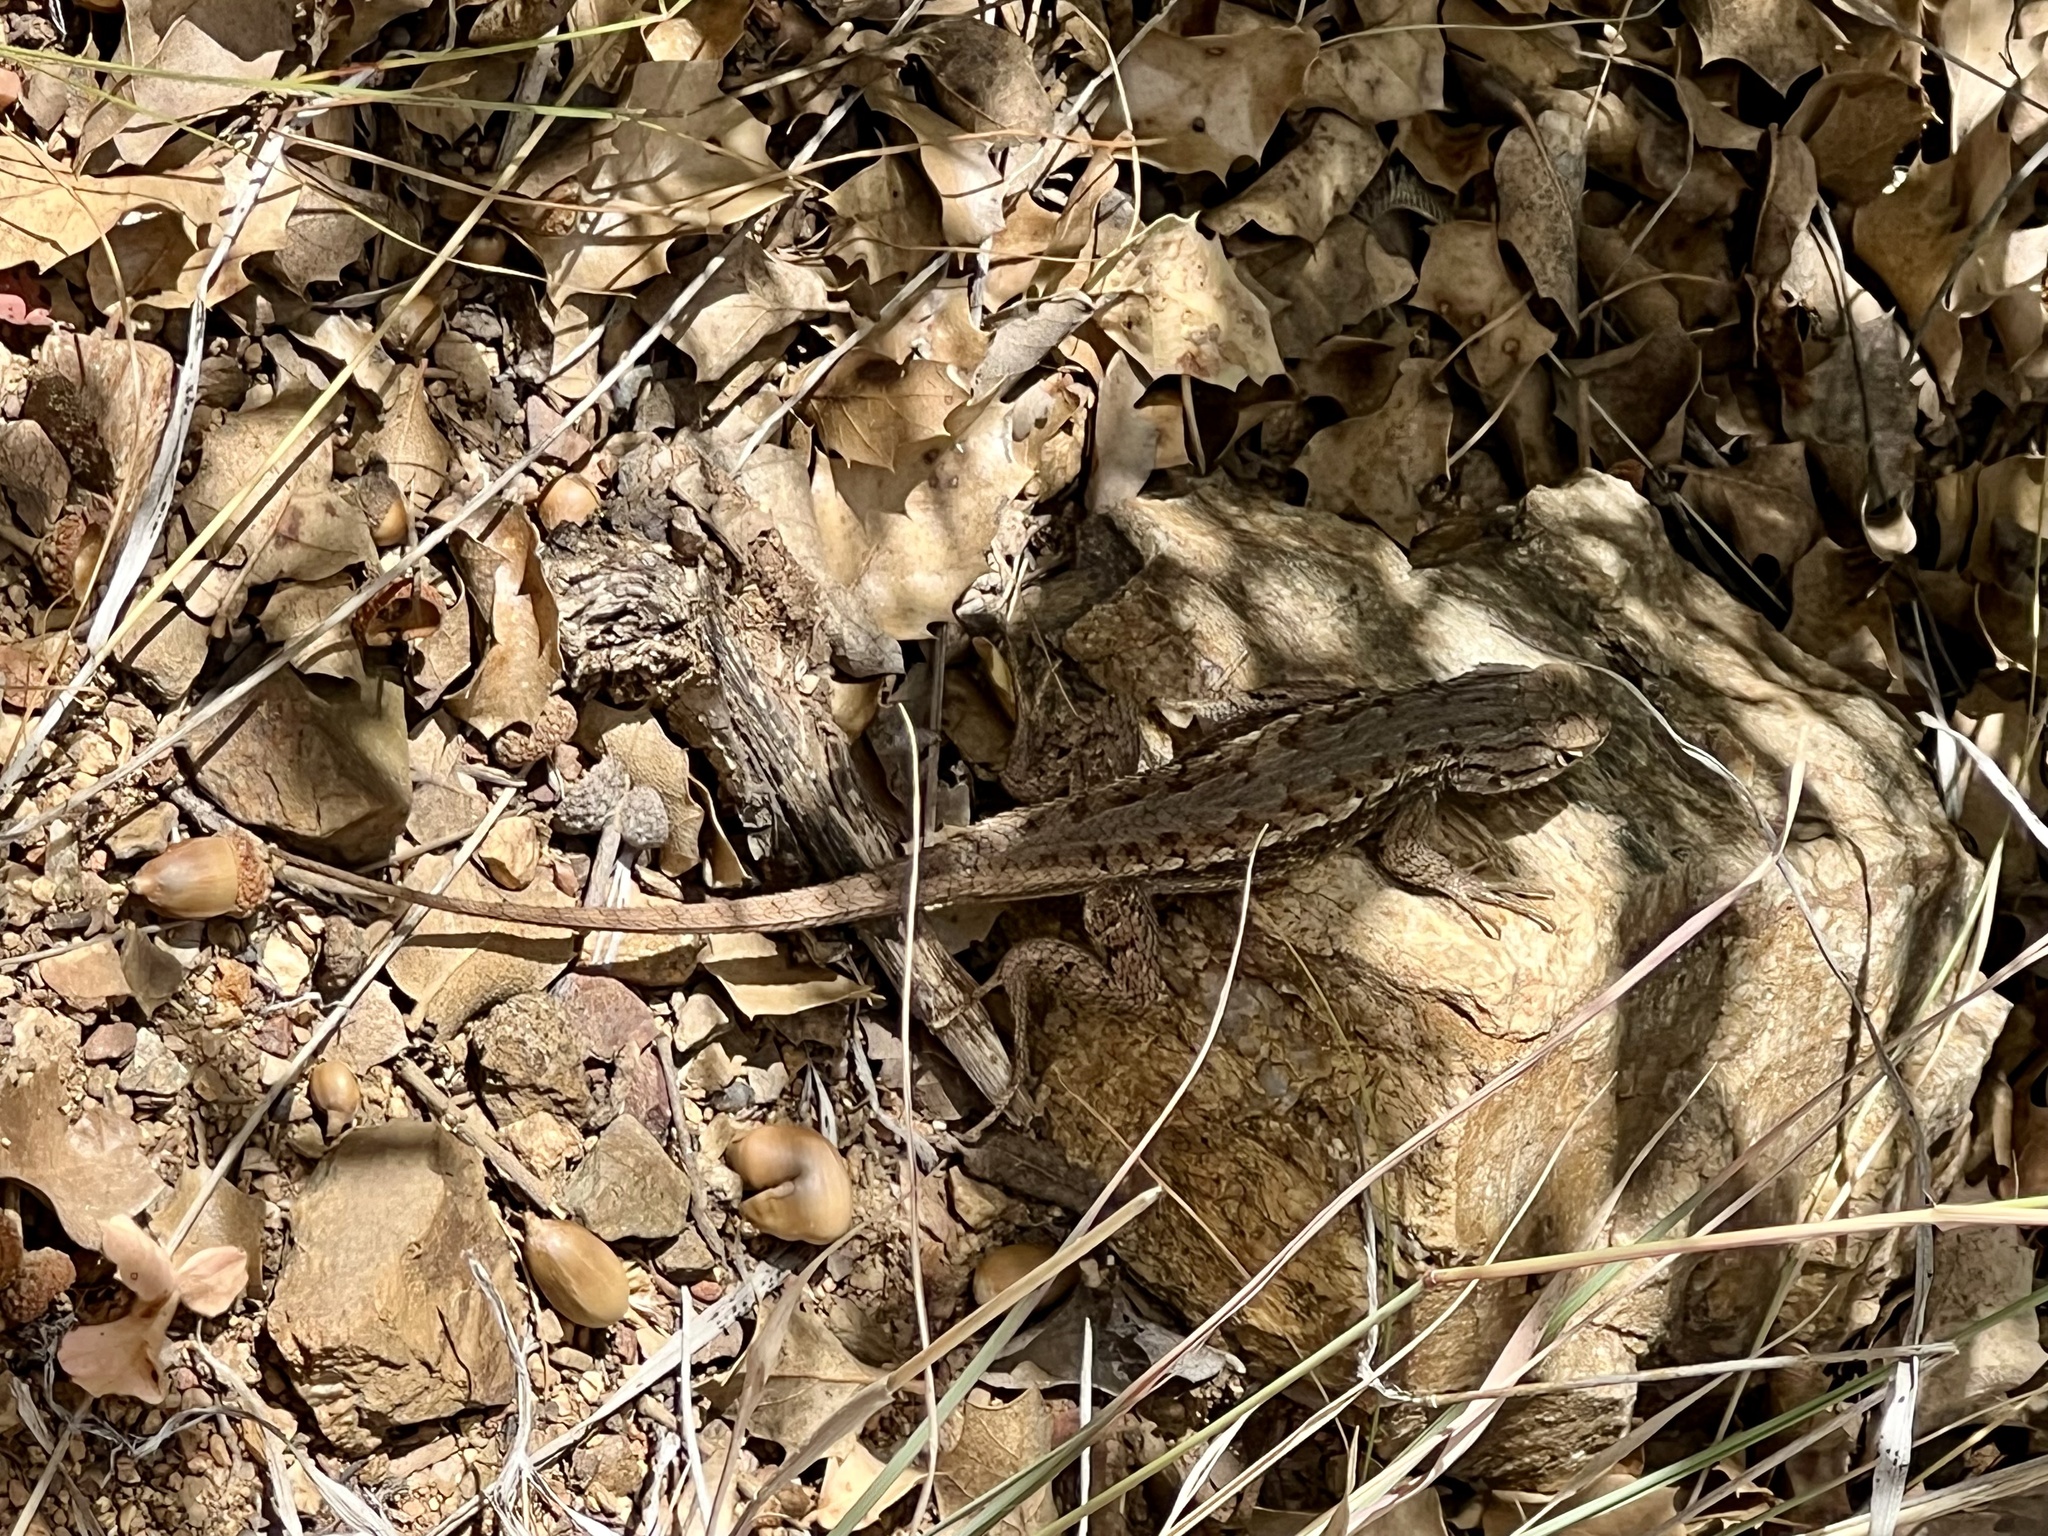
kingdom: Animalia
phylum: Chordata
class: Squamata
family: Phrynosomatidae
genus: Sceloporus
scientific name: Sceloporus tristichus
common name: Plateau fence lizard
